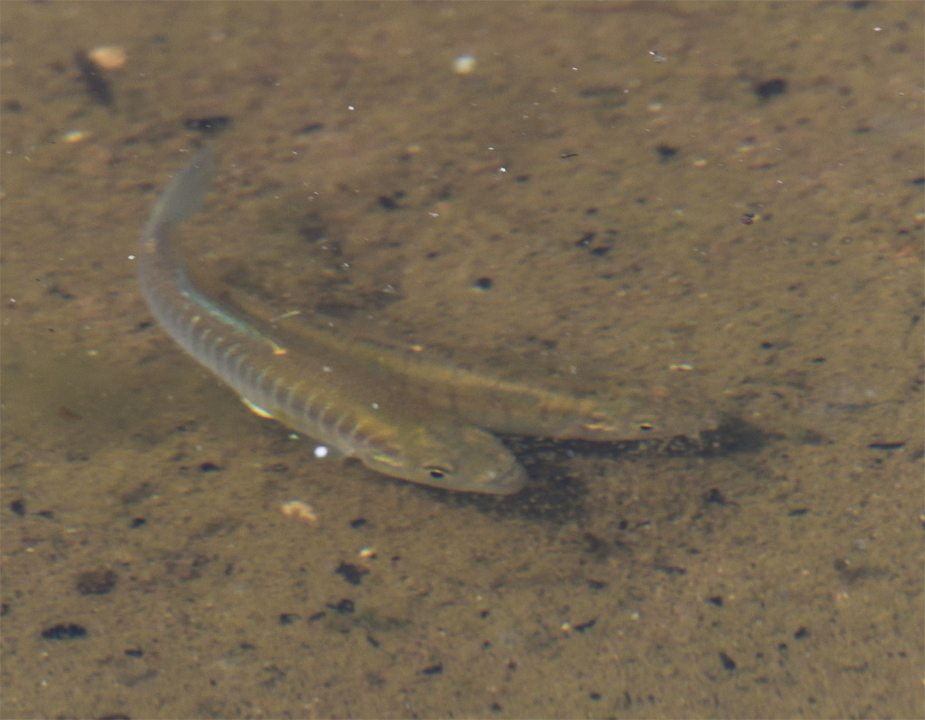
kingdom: Animalia
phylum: Chordata
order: Cyprinodontiformes
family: Fundulidae
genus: Fundulus
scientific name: Fundulus diaphanus
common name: Banded killifish
